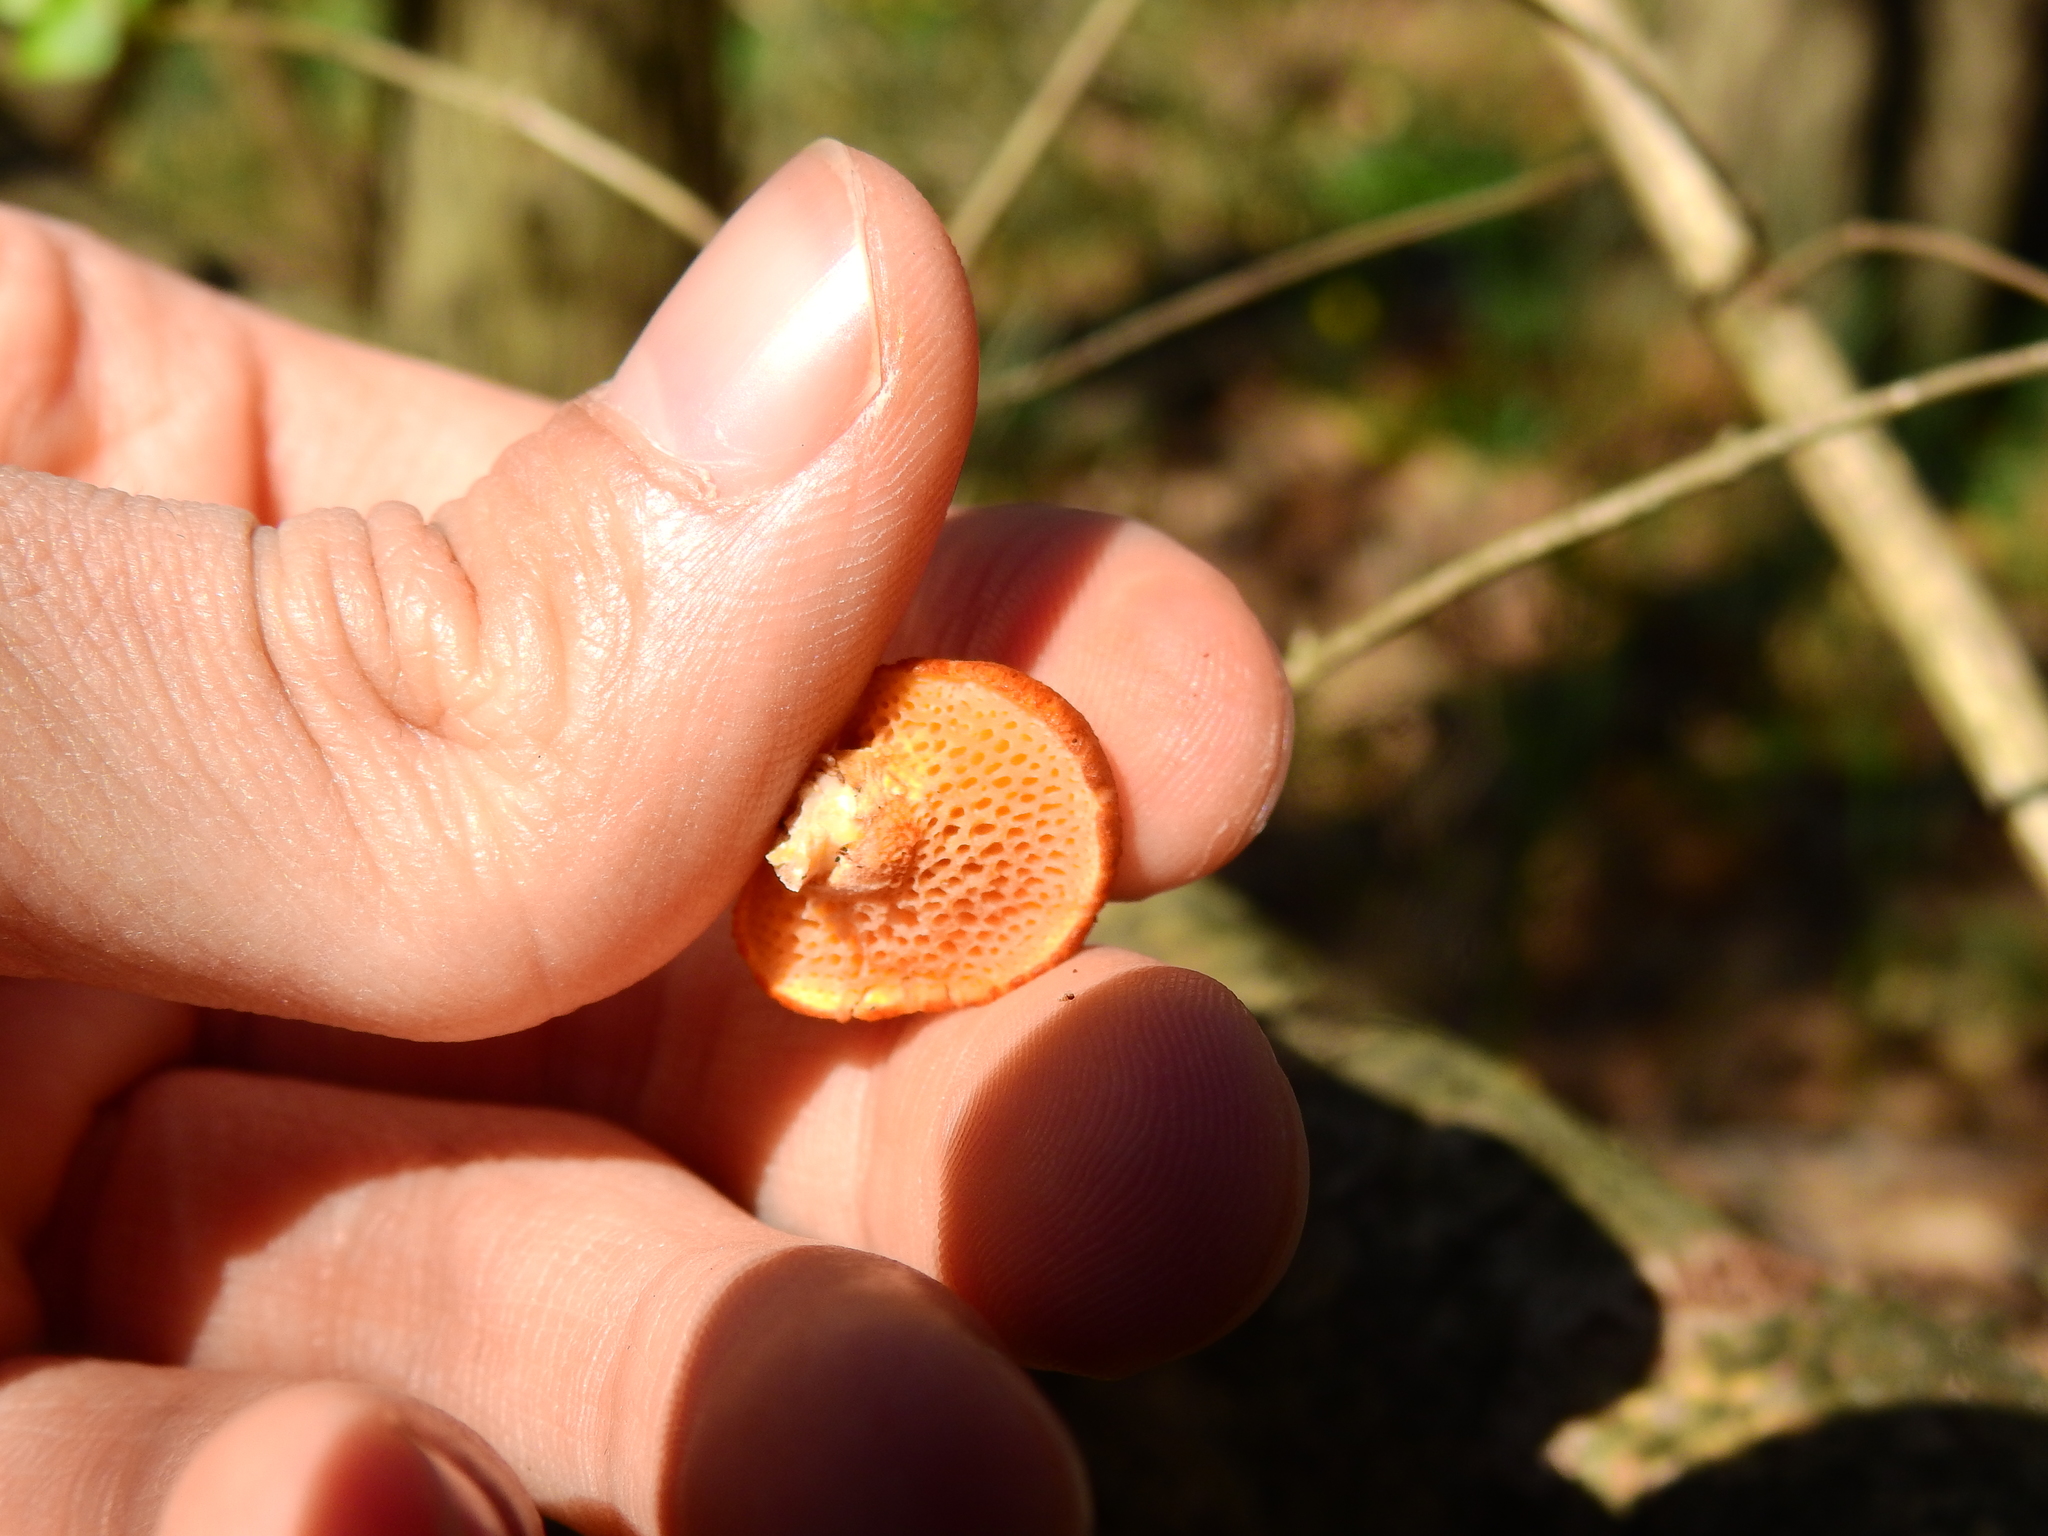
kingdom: Fungi
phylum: Basidiomycota
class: Agaricomycetes
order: Polyporales
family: Polyporaceae
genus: Neofavolus
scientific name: Neofavolus alveolaris
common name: Hexagonal-pored polypore
